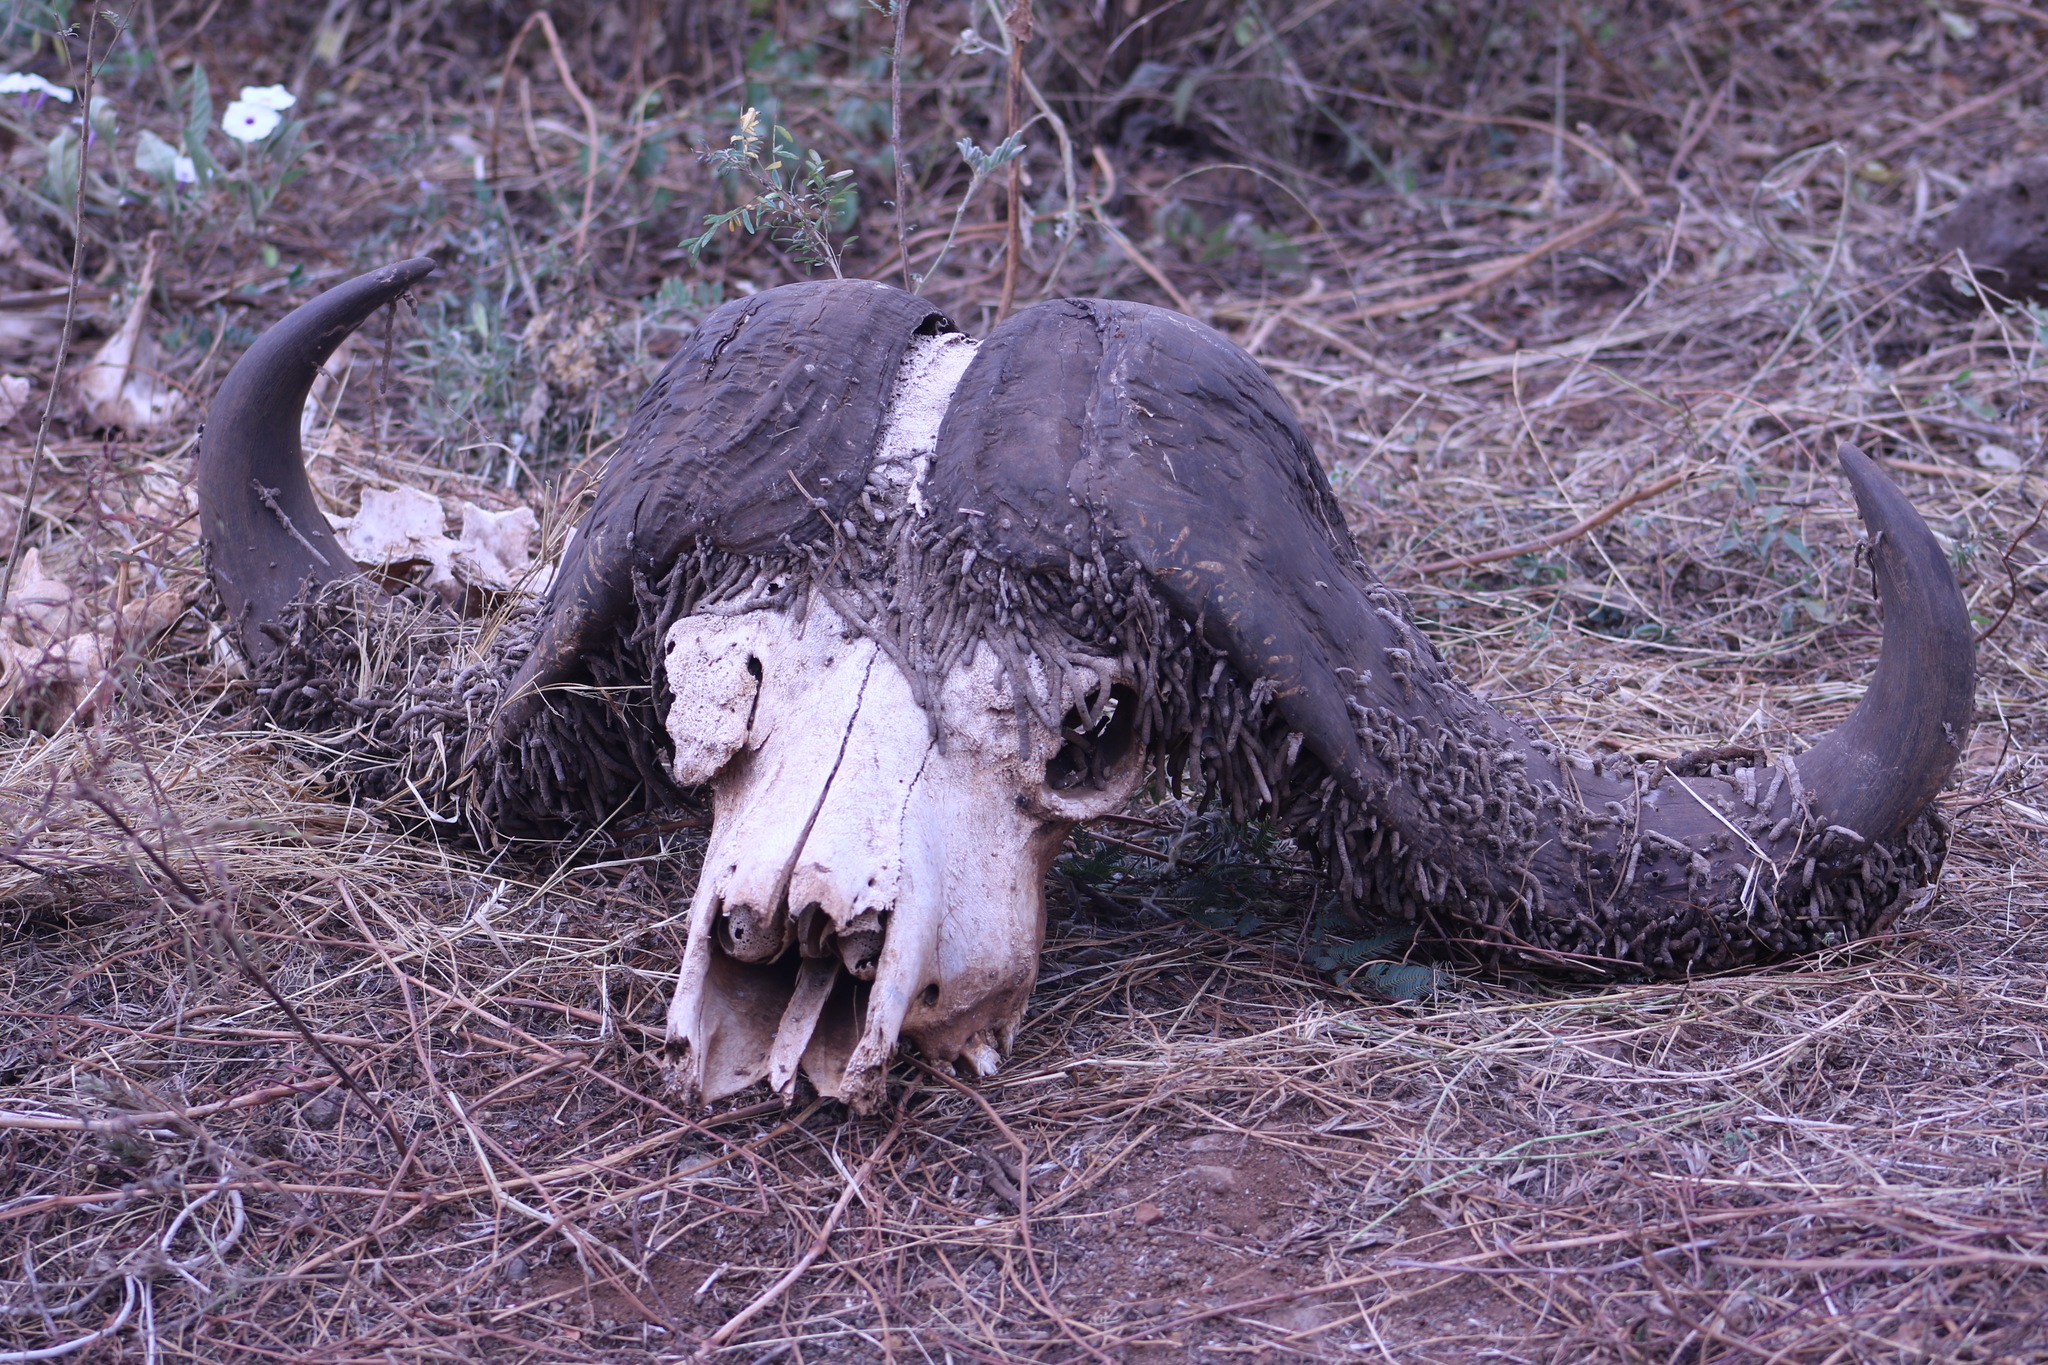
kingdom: Animalia
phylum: Arthropoda
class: Insecta
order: Lepidoptera
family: Tineidae
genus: Ceratophaga
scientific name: Ceratophaga vastellus
